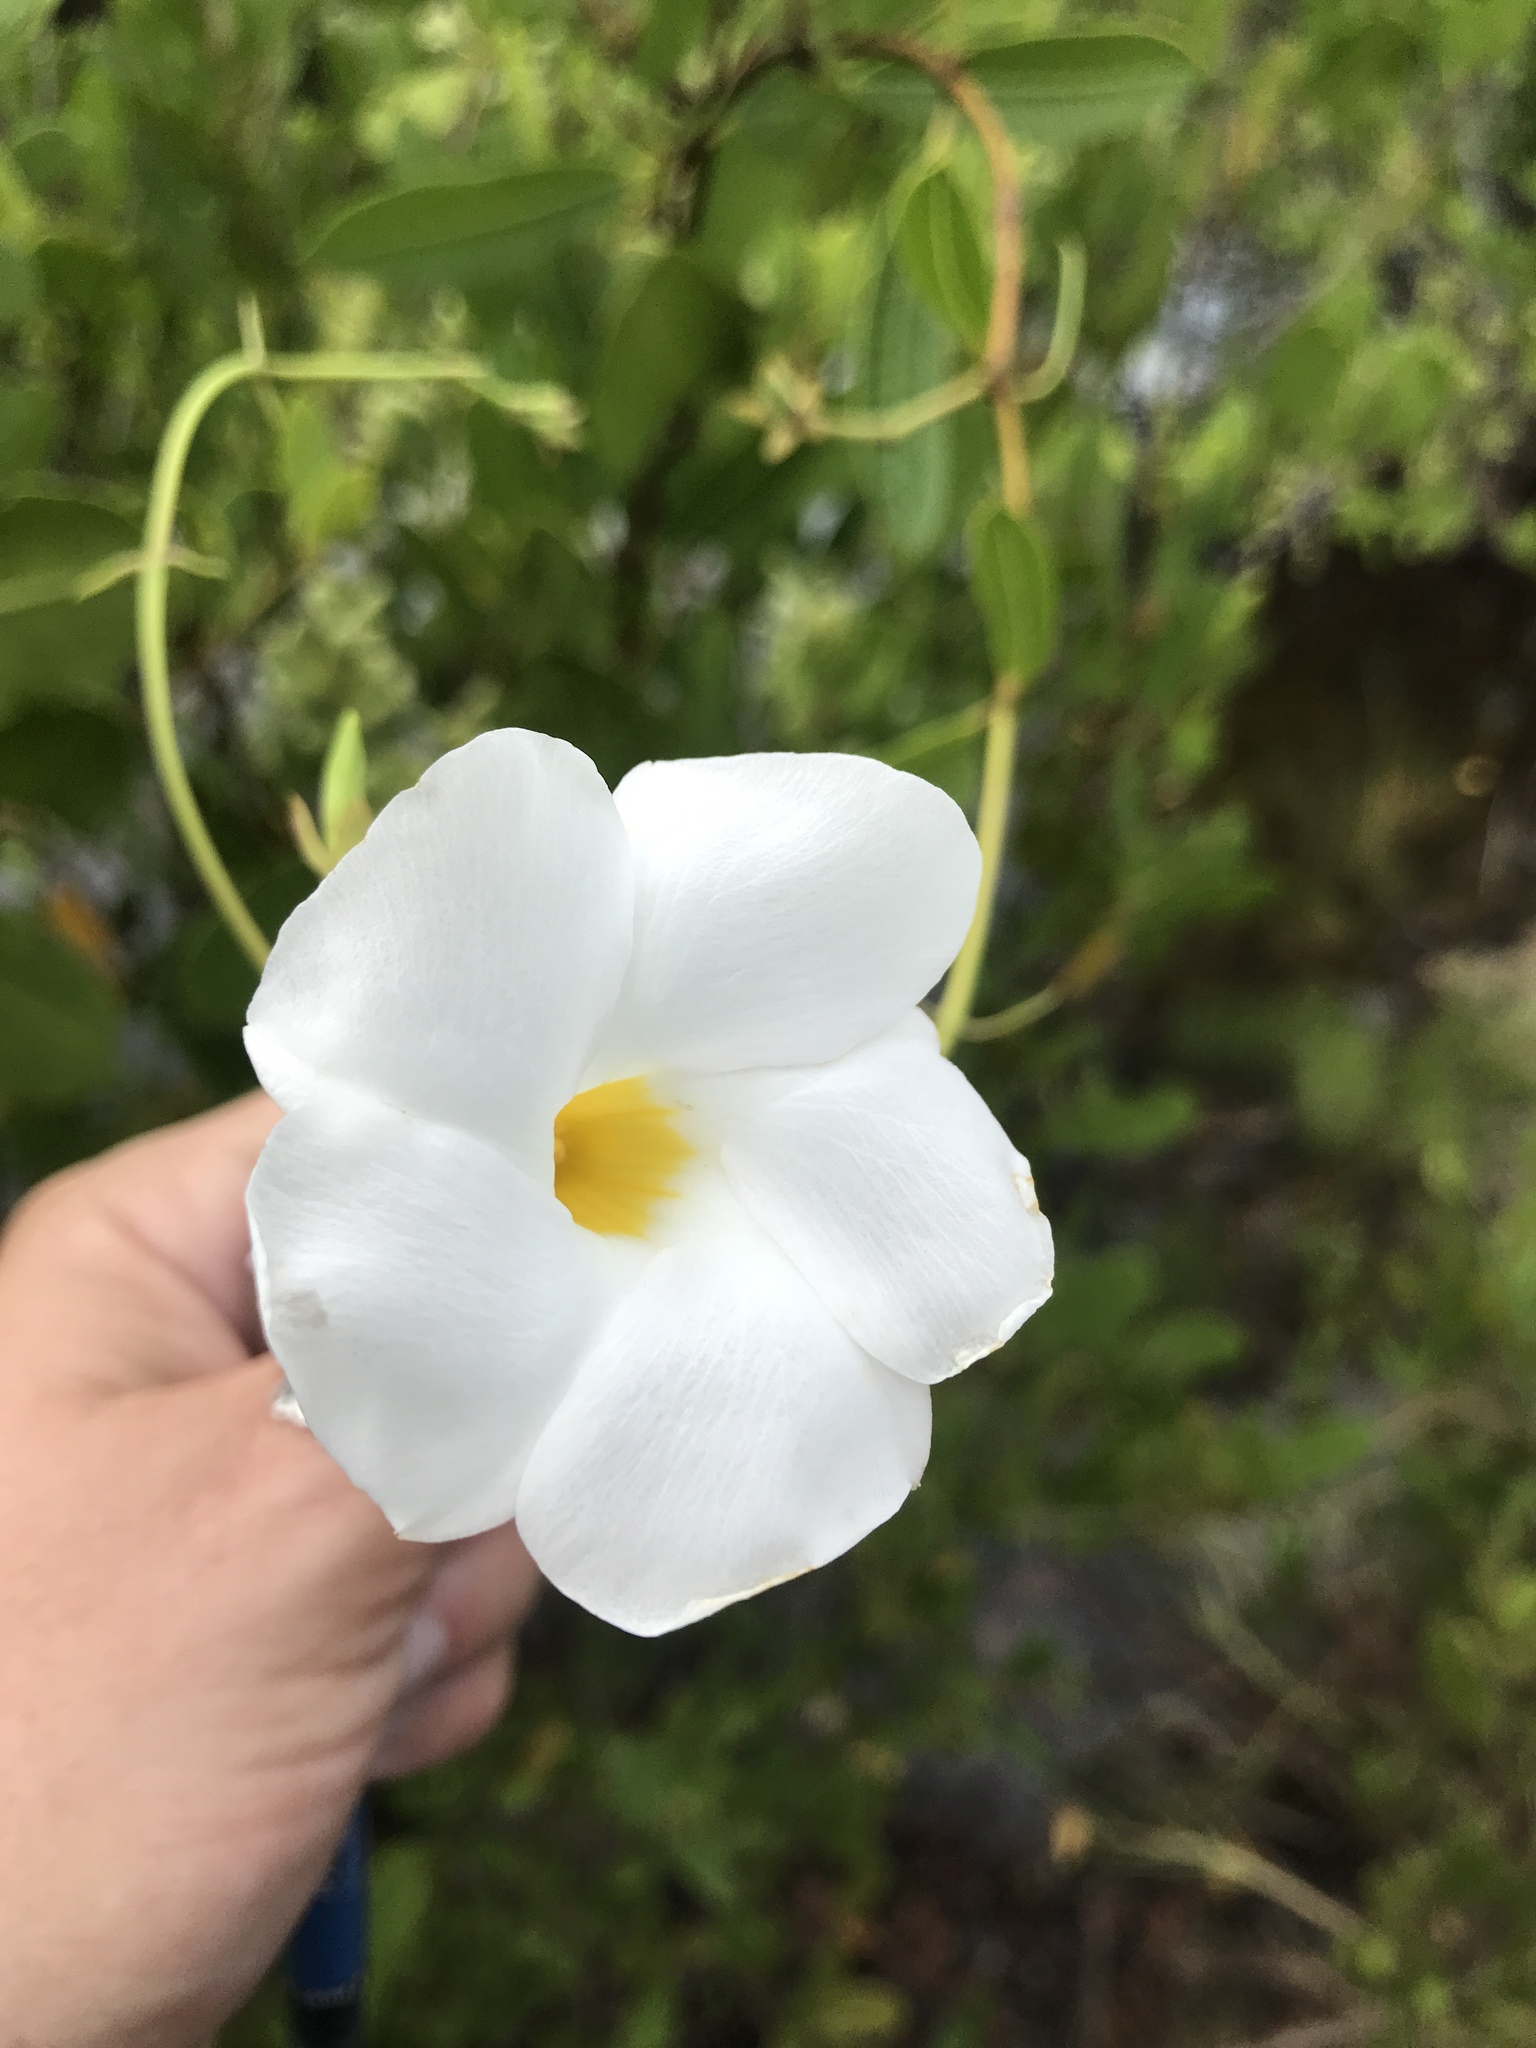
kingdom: Plantae
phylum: Tracheophyta
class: Magnoliopsida
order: Gentianales
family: Apocynaceae
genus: Rhabdadenia
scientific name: Rhabdadenia biflora
